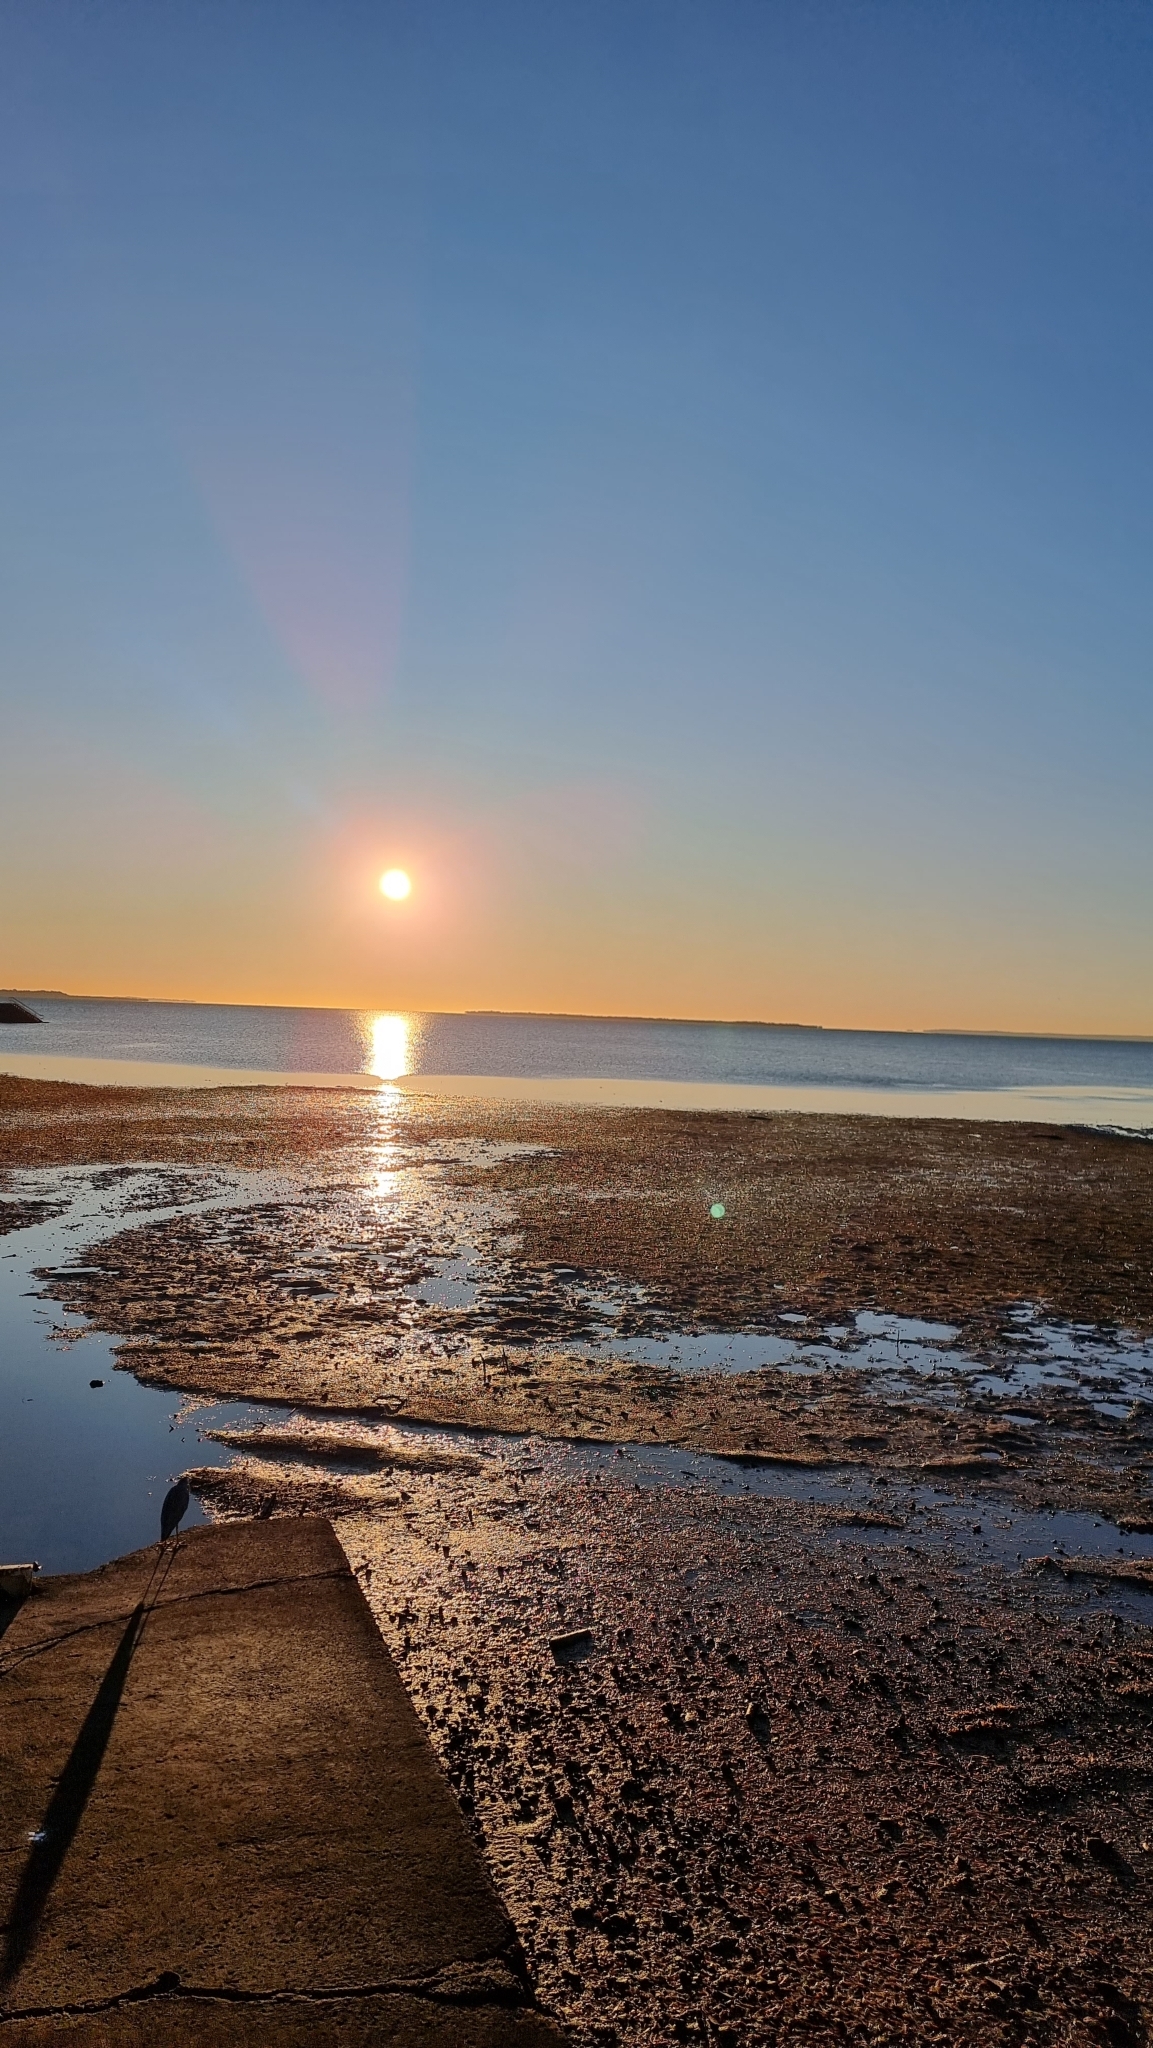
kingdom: Animalia
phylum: Chordata
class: Aves
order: Pelecaniformes
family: Ardeidae
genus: Egretta
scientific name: Egretta novaehollandiae
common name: White-faced heron
